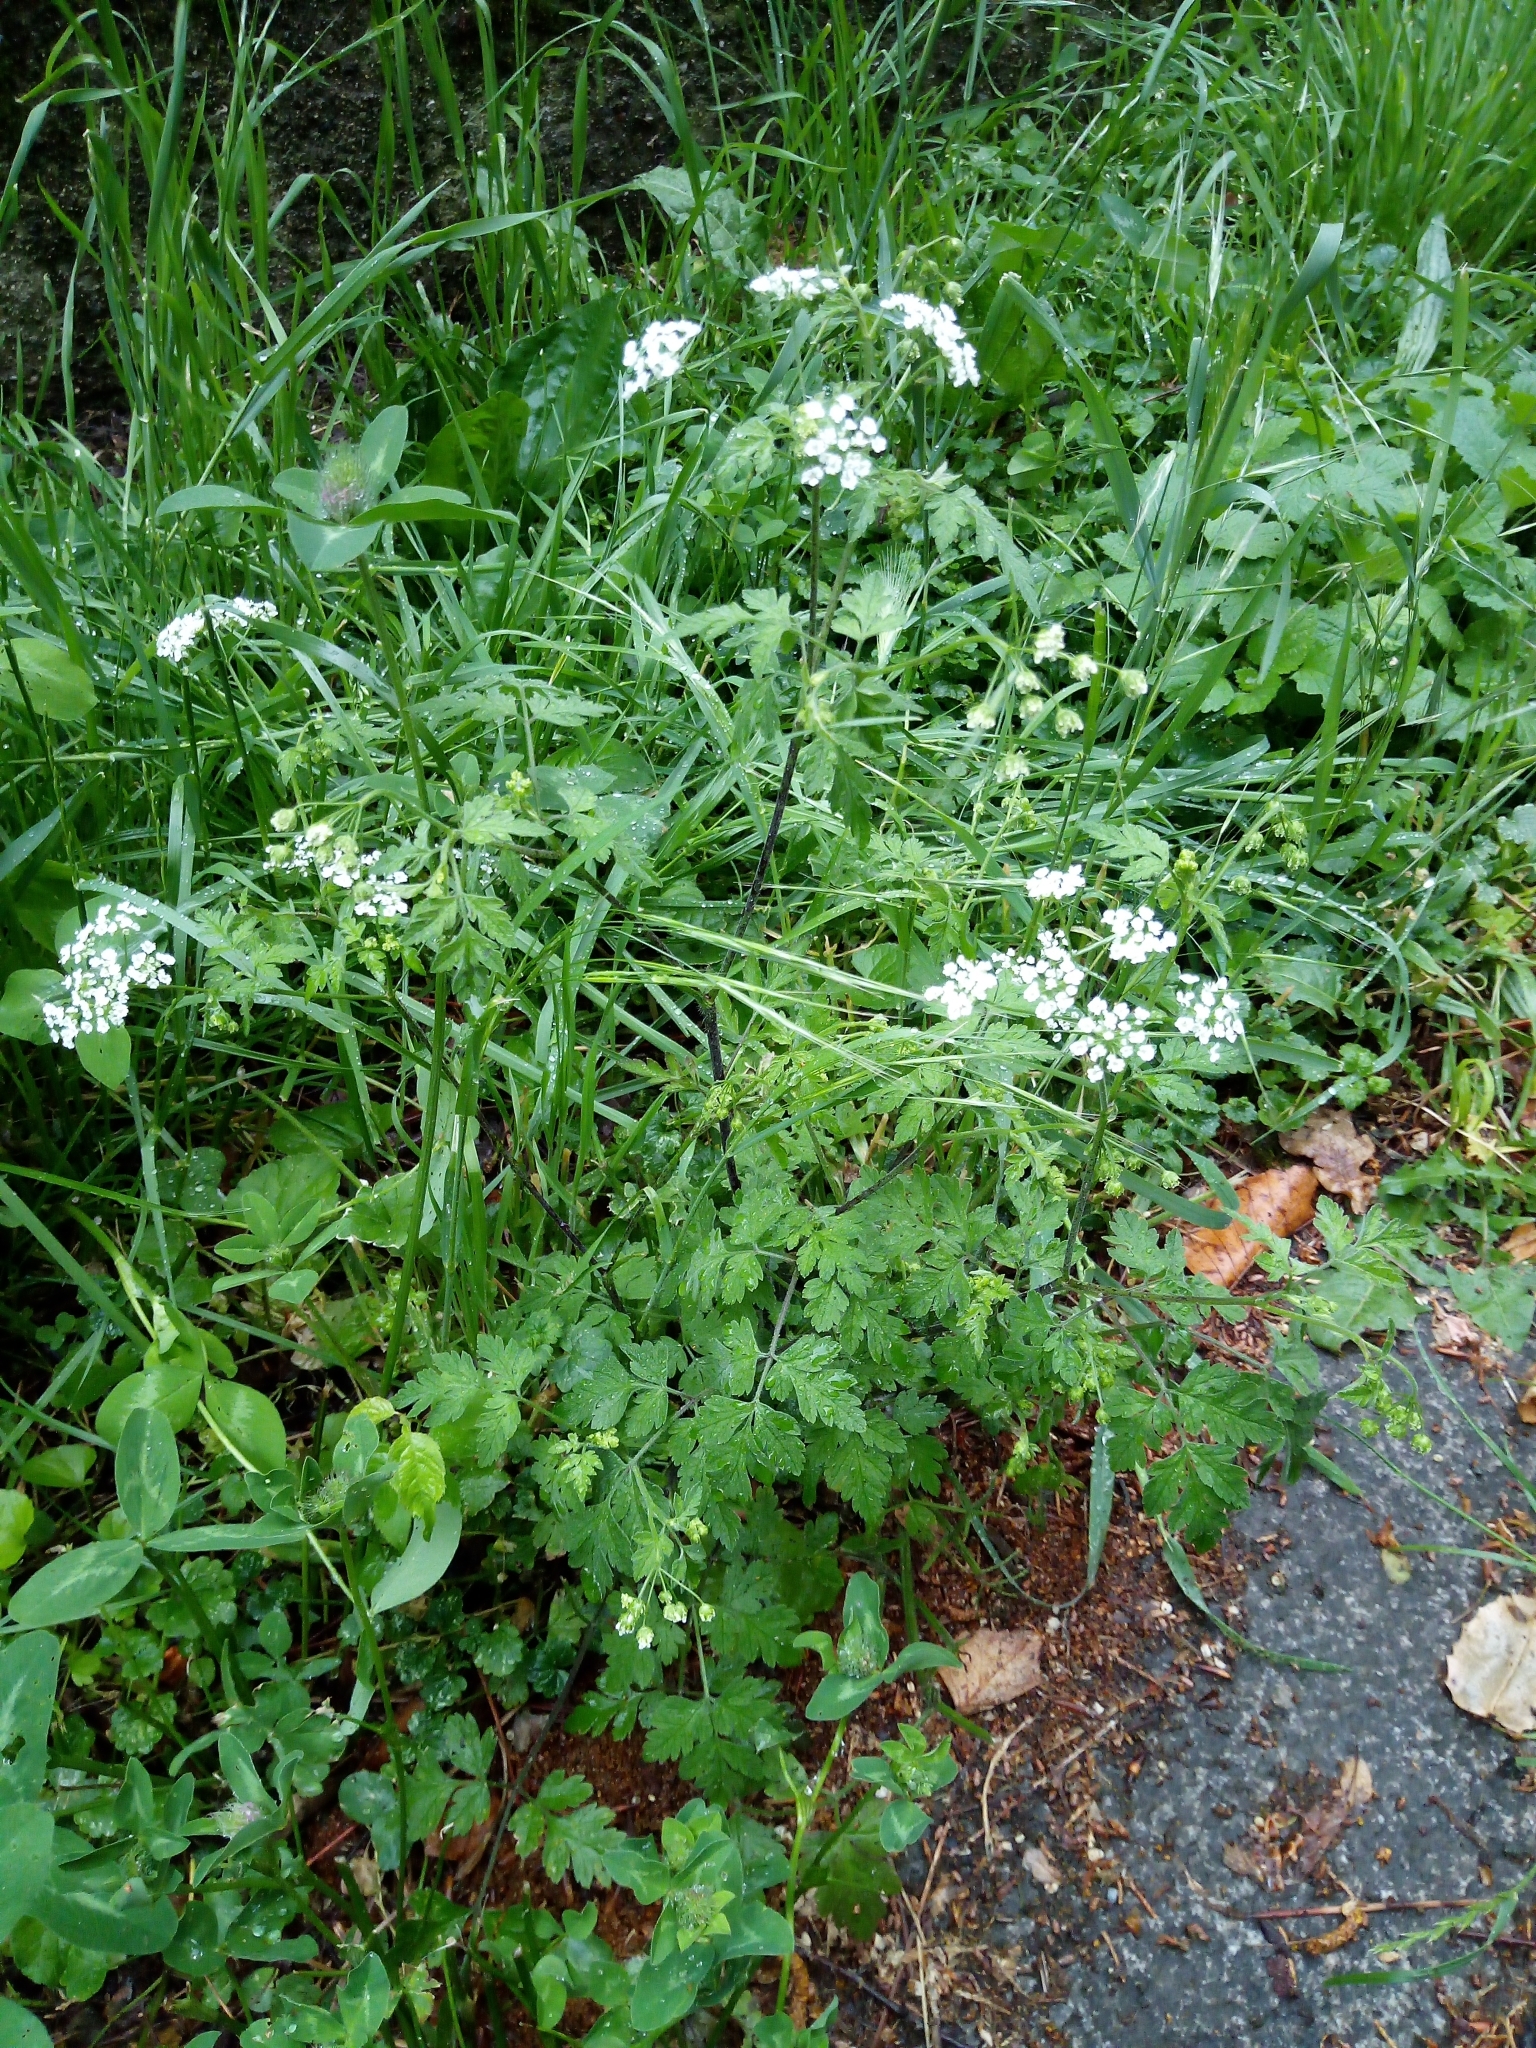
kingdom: Plantae
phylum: Tracheophyta
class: Magnoliopsida
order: Apiales
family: Apiaceae
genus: Chaerophyllum
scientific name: Chaerophyllum temulum
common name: Rough chervil
